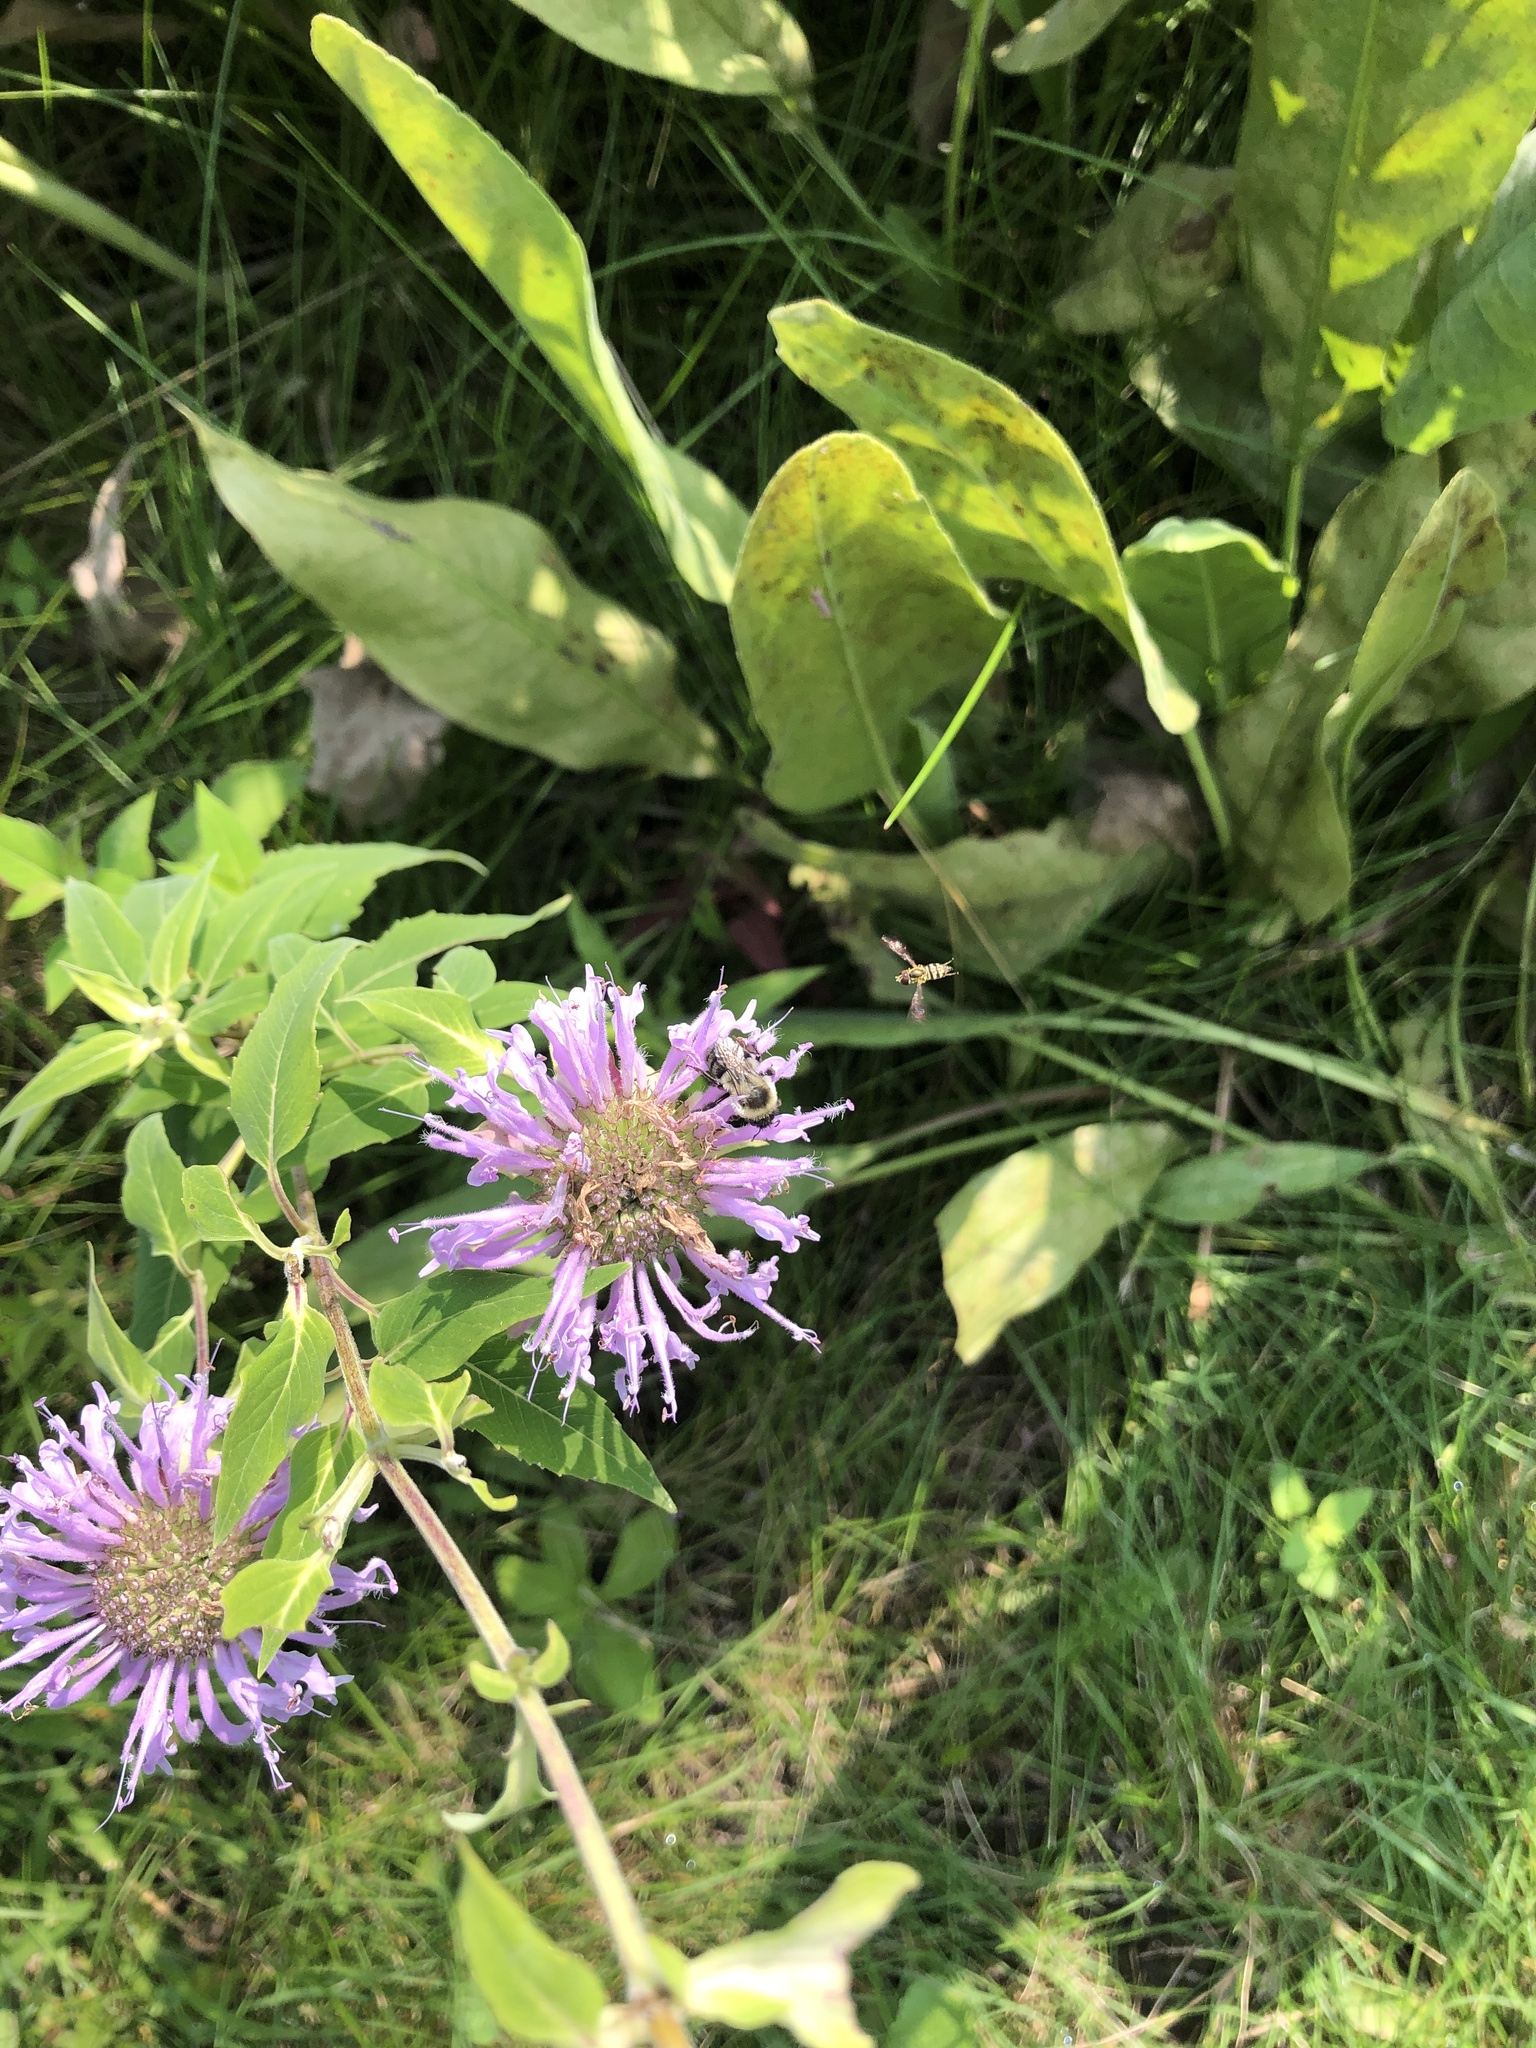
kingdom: Animalia
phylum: Arthropoda
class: Insecta
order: Hymenoptera
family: Apidae
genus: Bombus
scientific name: Bombus impatiens
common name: Common eastern bumble bee
